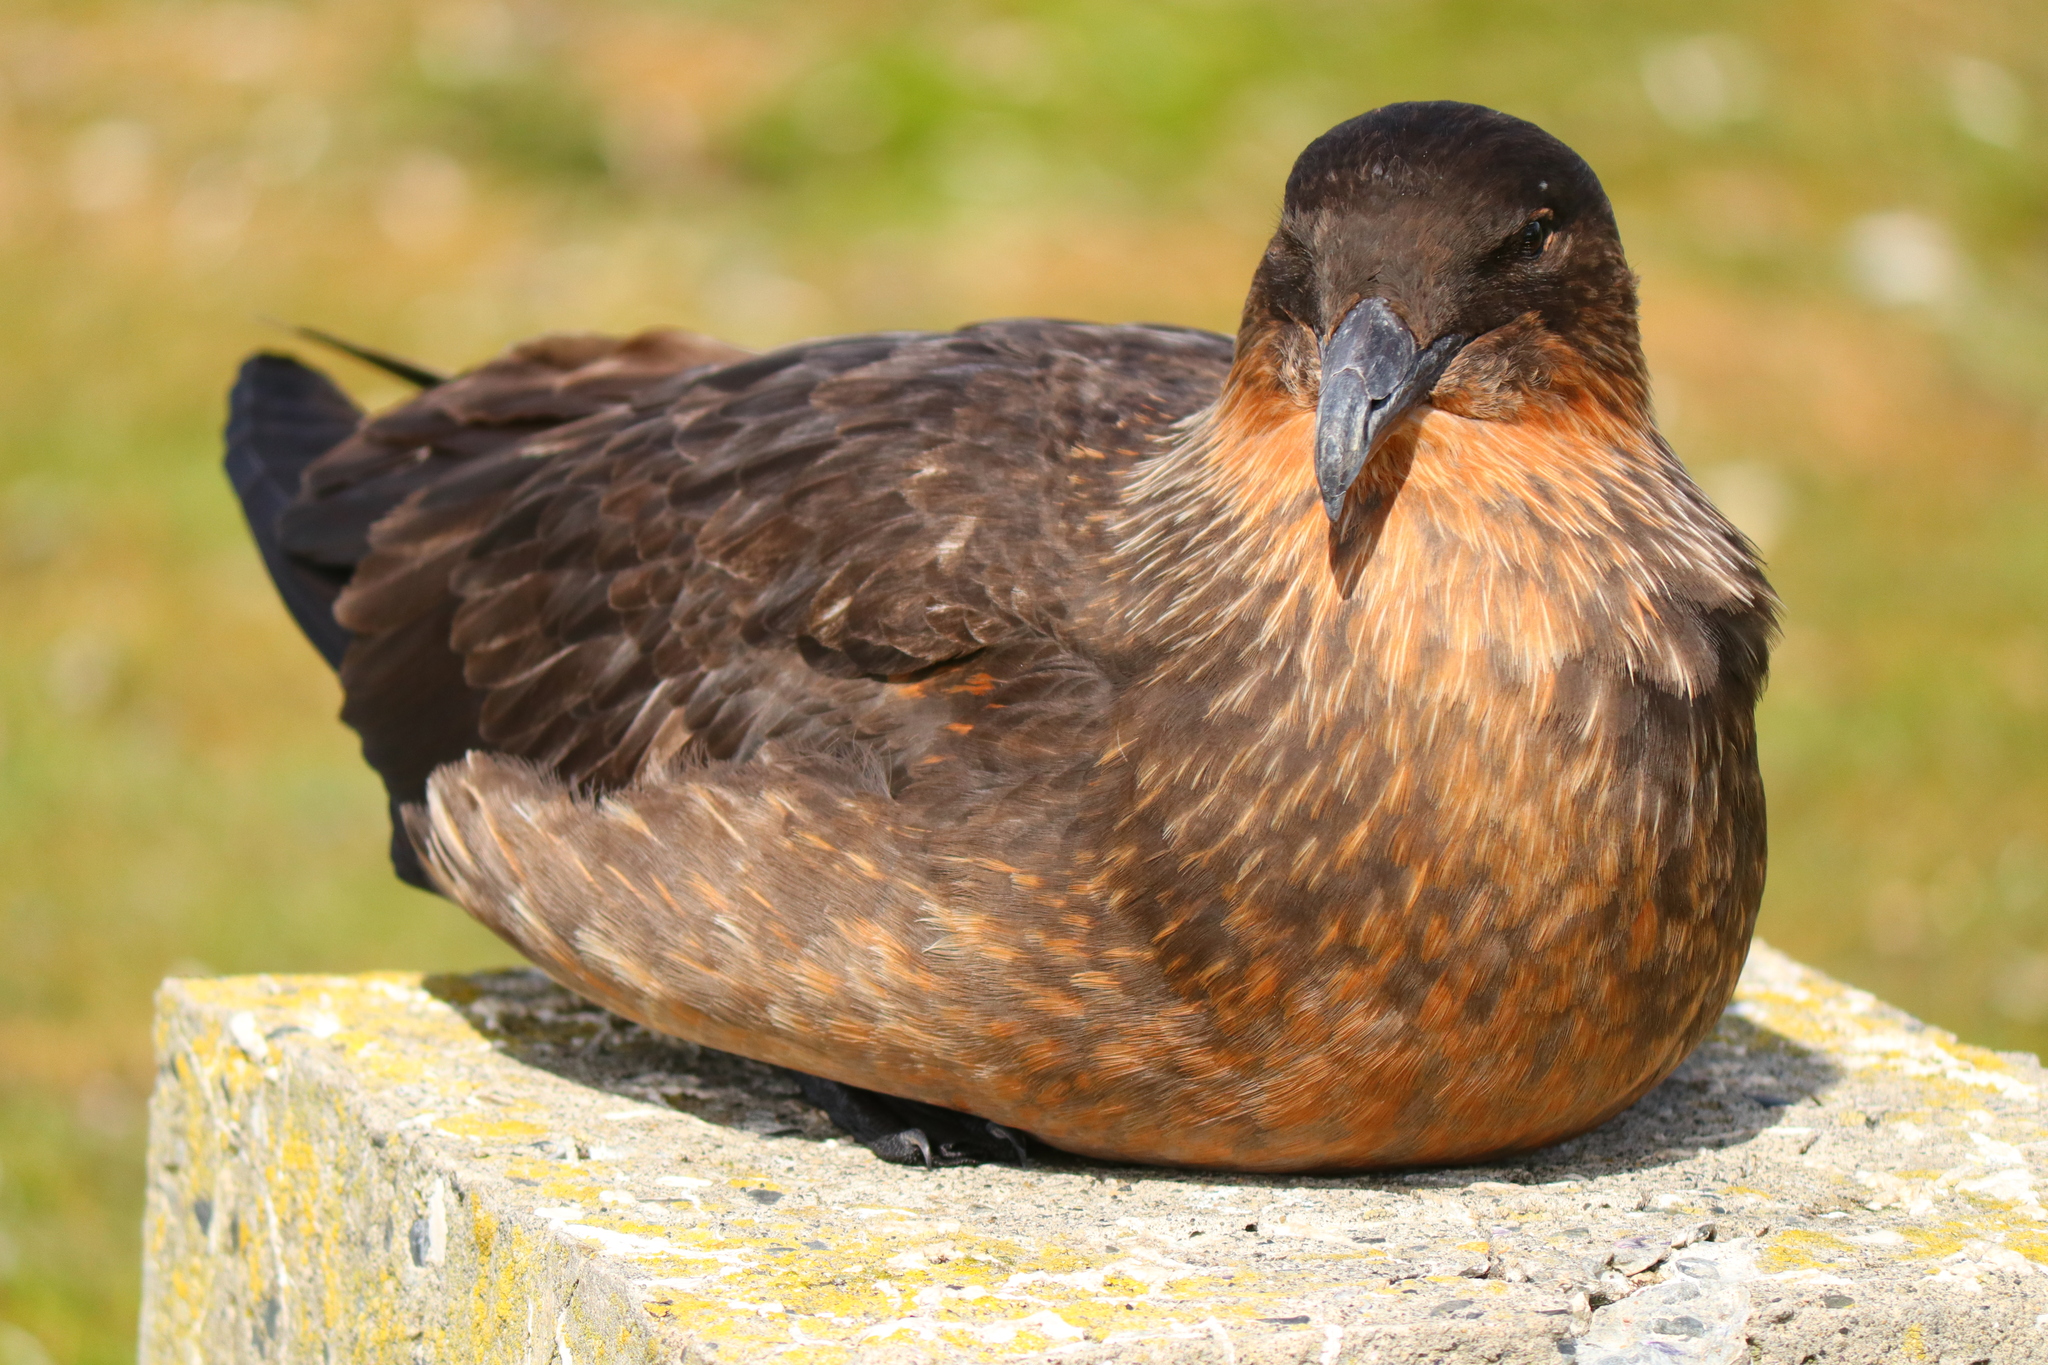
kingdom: Animalia
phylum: Chordata
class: Aves
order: Charadriiformes
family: Stercorariidae
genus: Stercorarius
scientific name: Stercorarius chilensis
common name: Chilean skua
